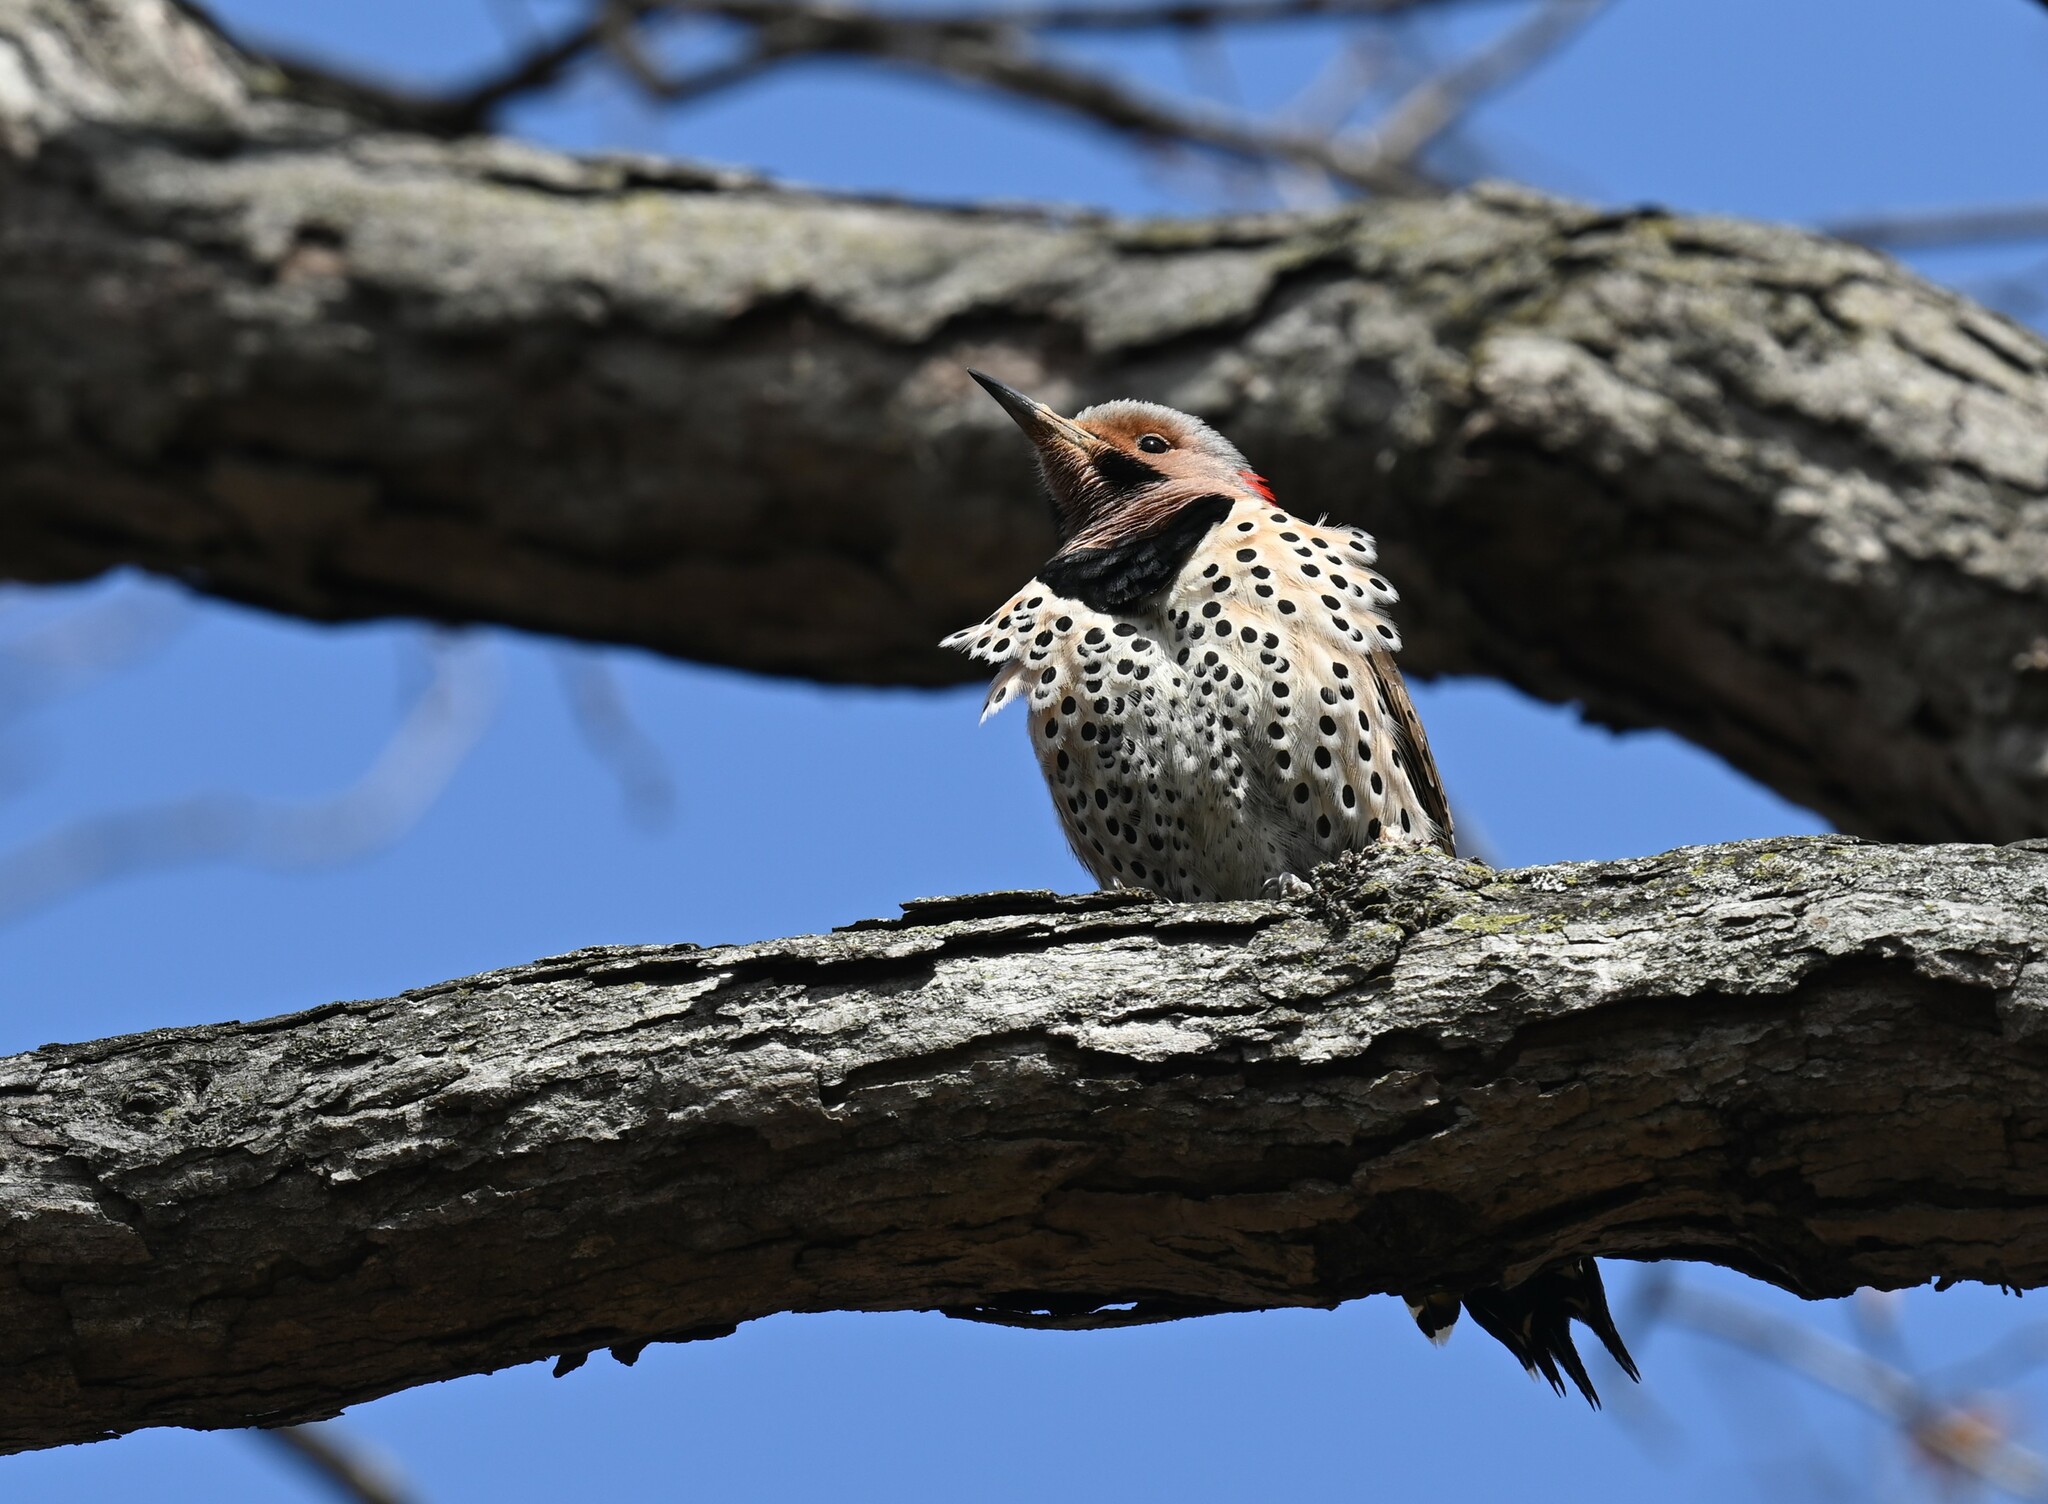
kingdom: Animalia
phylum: Chordata
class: Aves
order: Piciformes
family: Picidae
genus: Colaptes
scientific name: Colaptes auratus
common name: Northern flicker
